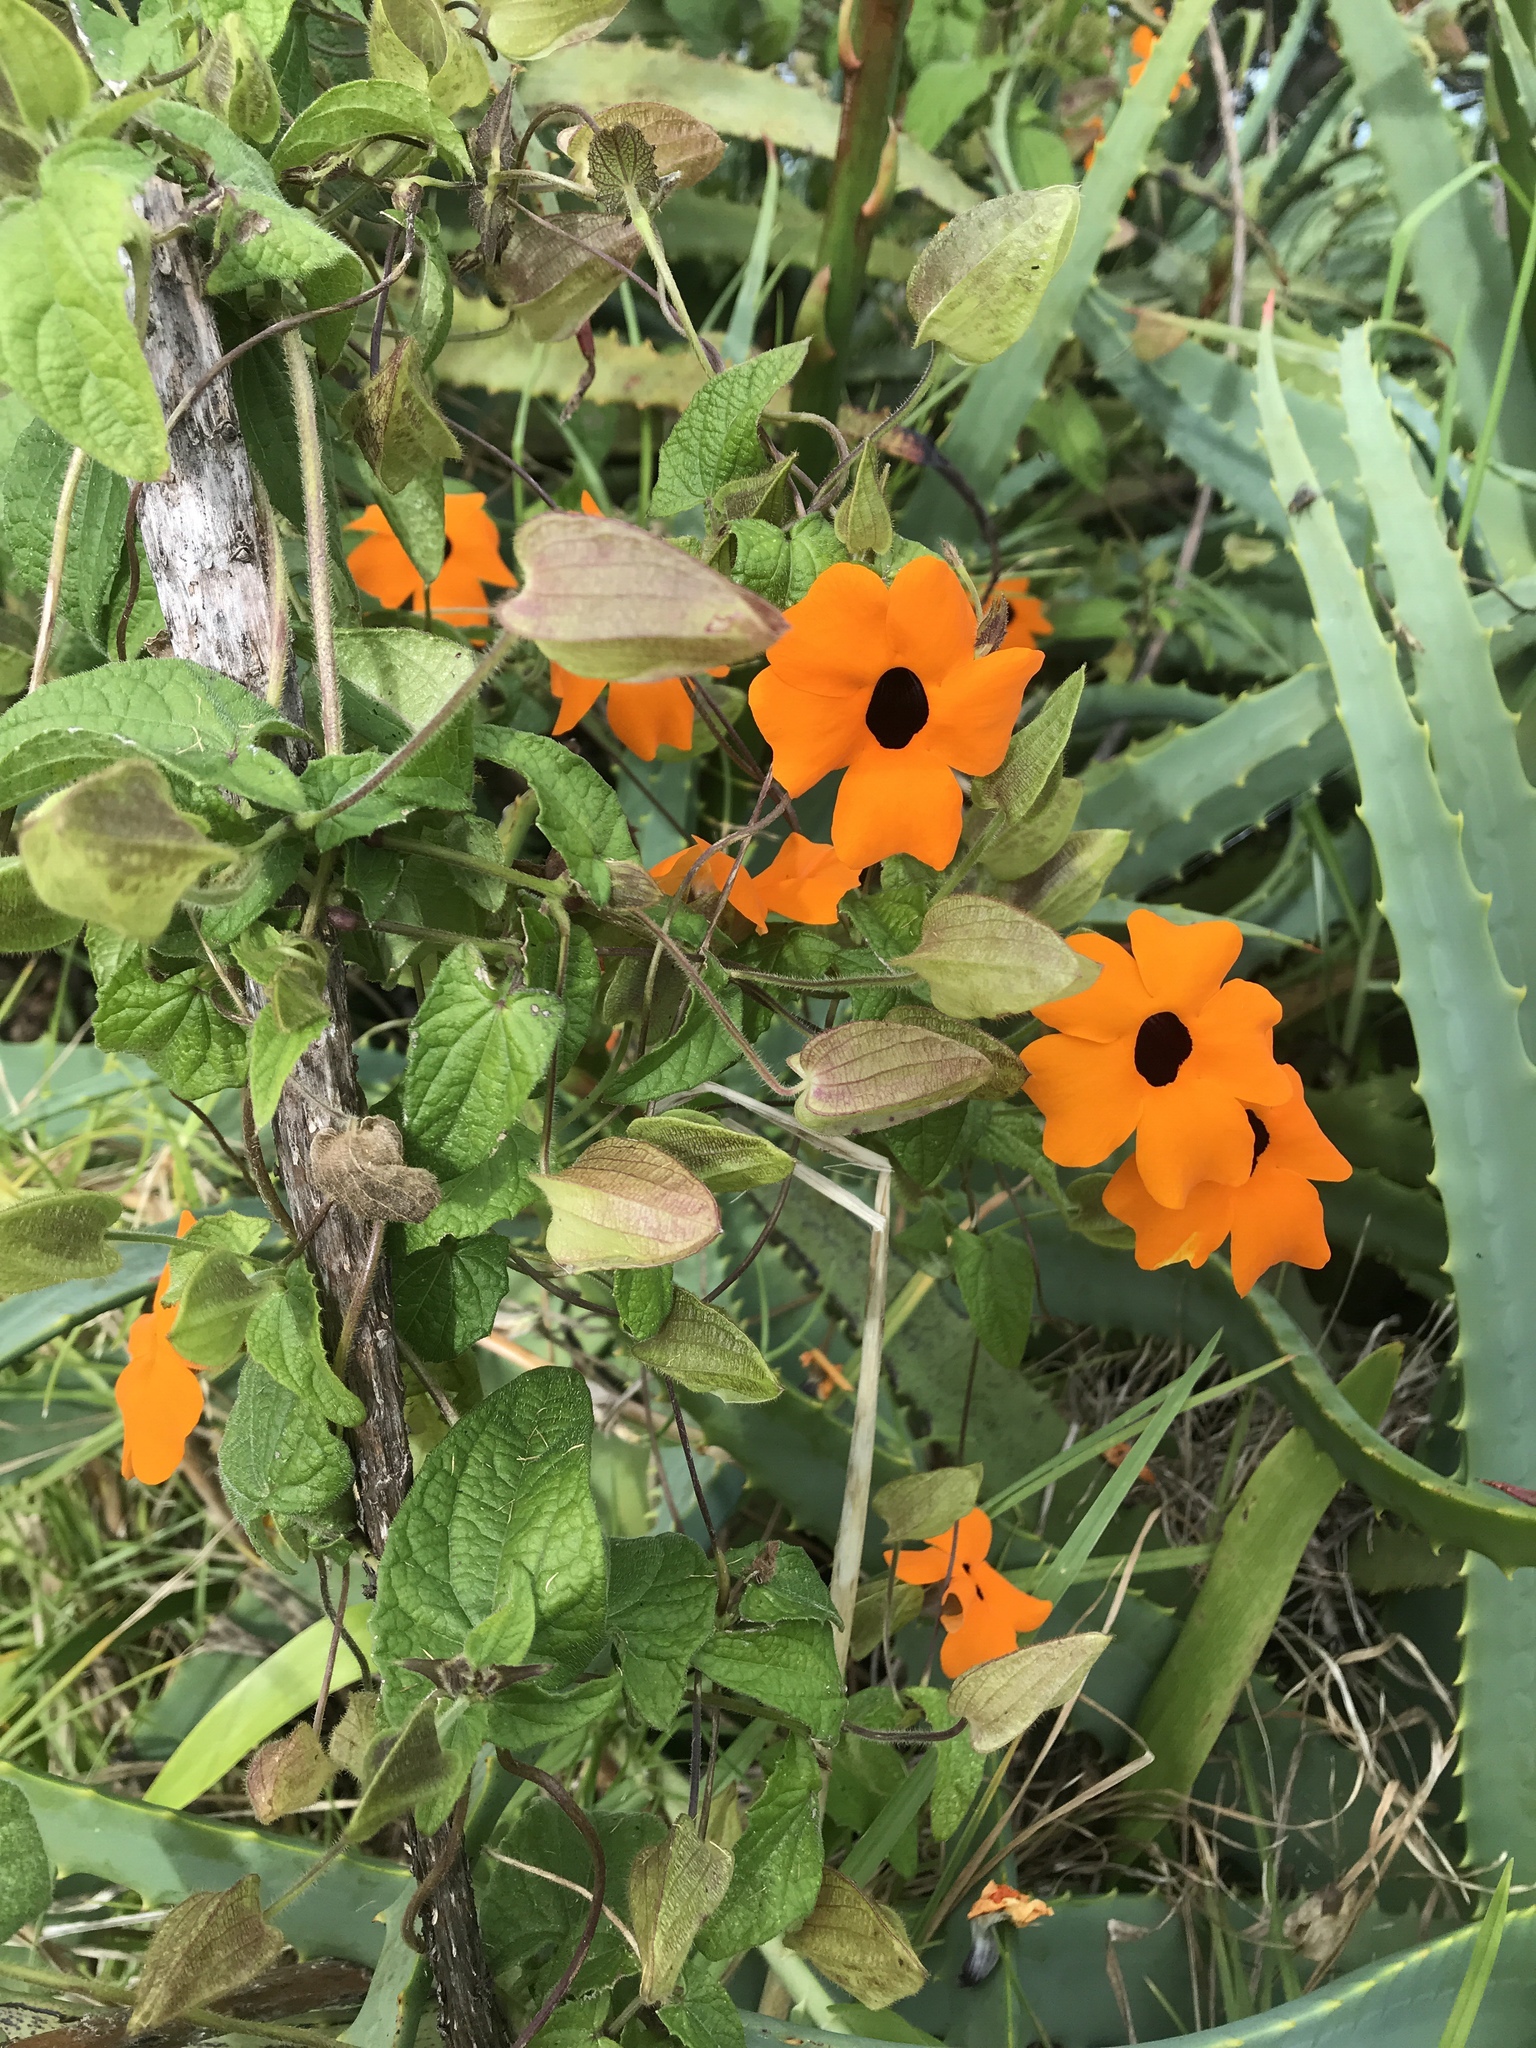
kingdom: Plantae
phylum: Tracheophyta
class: Magnoliopsida
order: Lamiales
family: Acanthaceae
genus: Thunbergia
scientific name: Thunbergia alata
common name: Blackeyed susan vine
